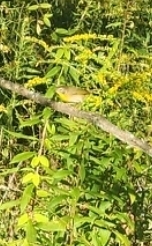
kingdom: Animalia
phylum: Chordata
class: Aves
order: Passeriformes
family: Parulidae
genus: Geothlypis
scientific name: Geothlypis trichas
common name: Common yellowthroat
